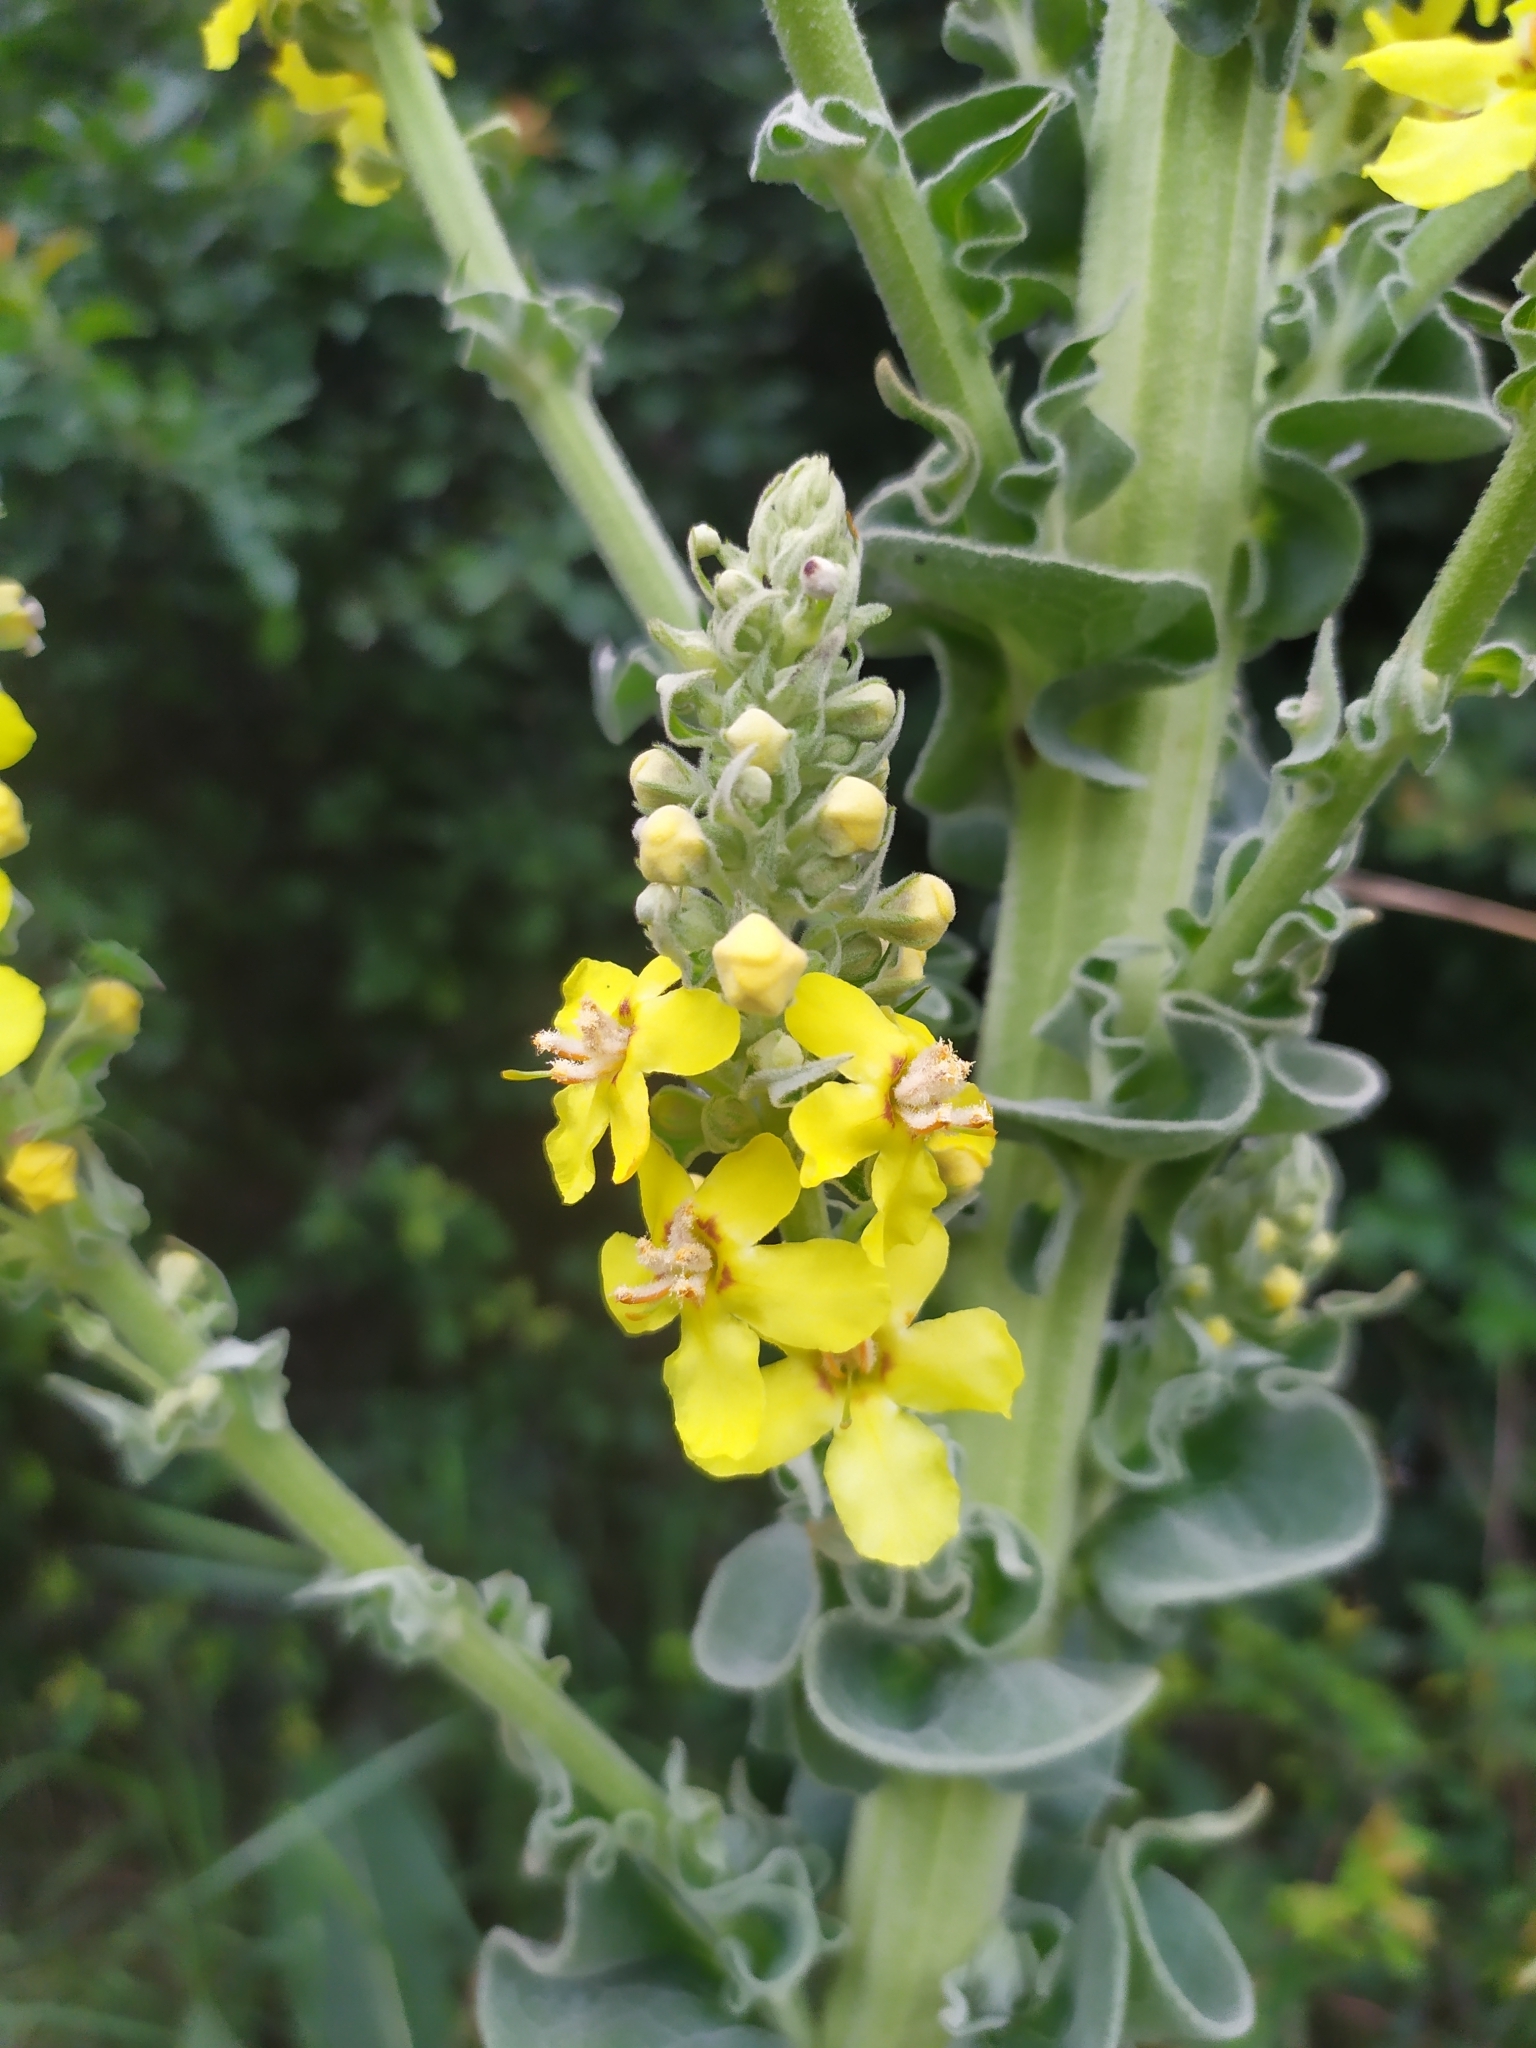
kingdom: Plantae
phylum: Tracheophyta
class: Magnoliopsida
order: Lamiales
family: Scrophulariaceae
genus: Verbascum
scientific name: Verbascum speciosum
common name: Hungarian mullein
